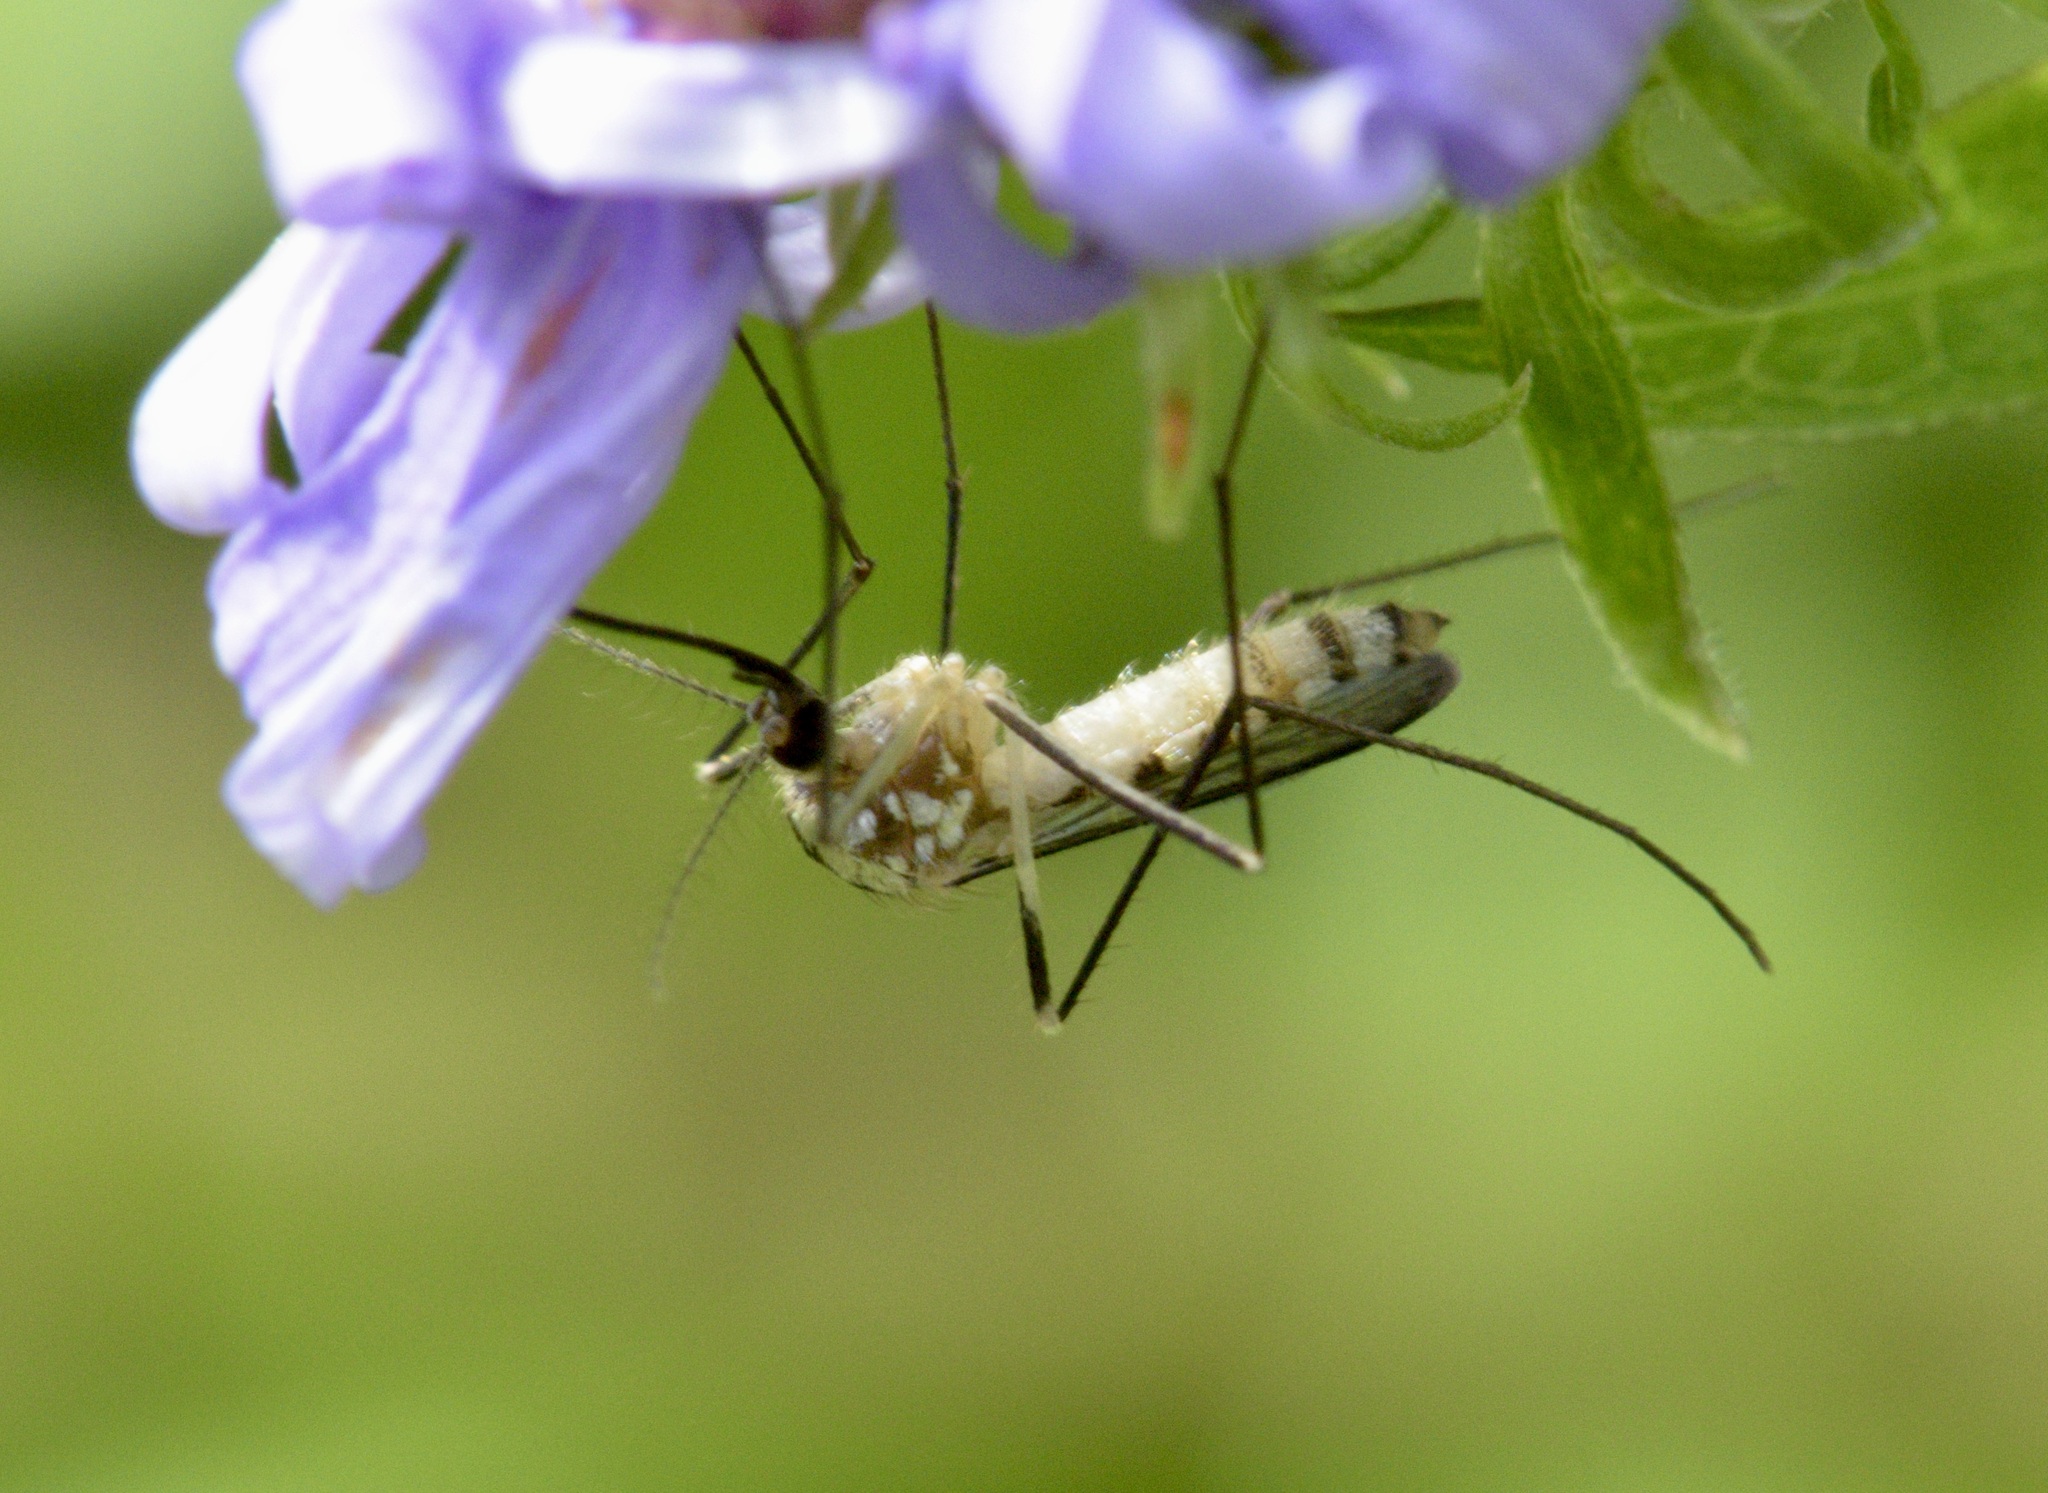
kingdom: Animalia
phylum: Arthropoda
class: Insecta
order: Diptera
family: Culicidae
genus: Aedes
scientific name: Aedes triseriatus
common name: Eastern treehole mosquito
